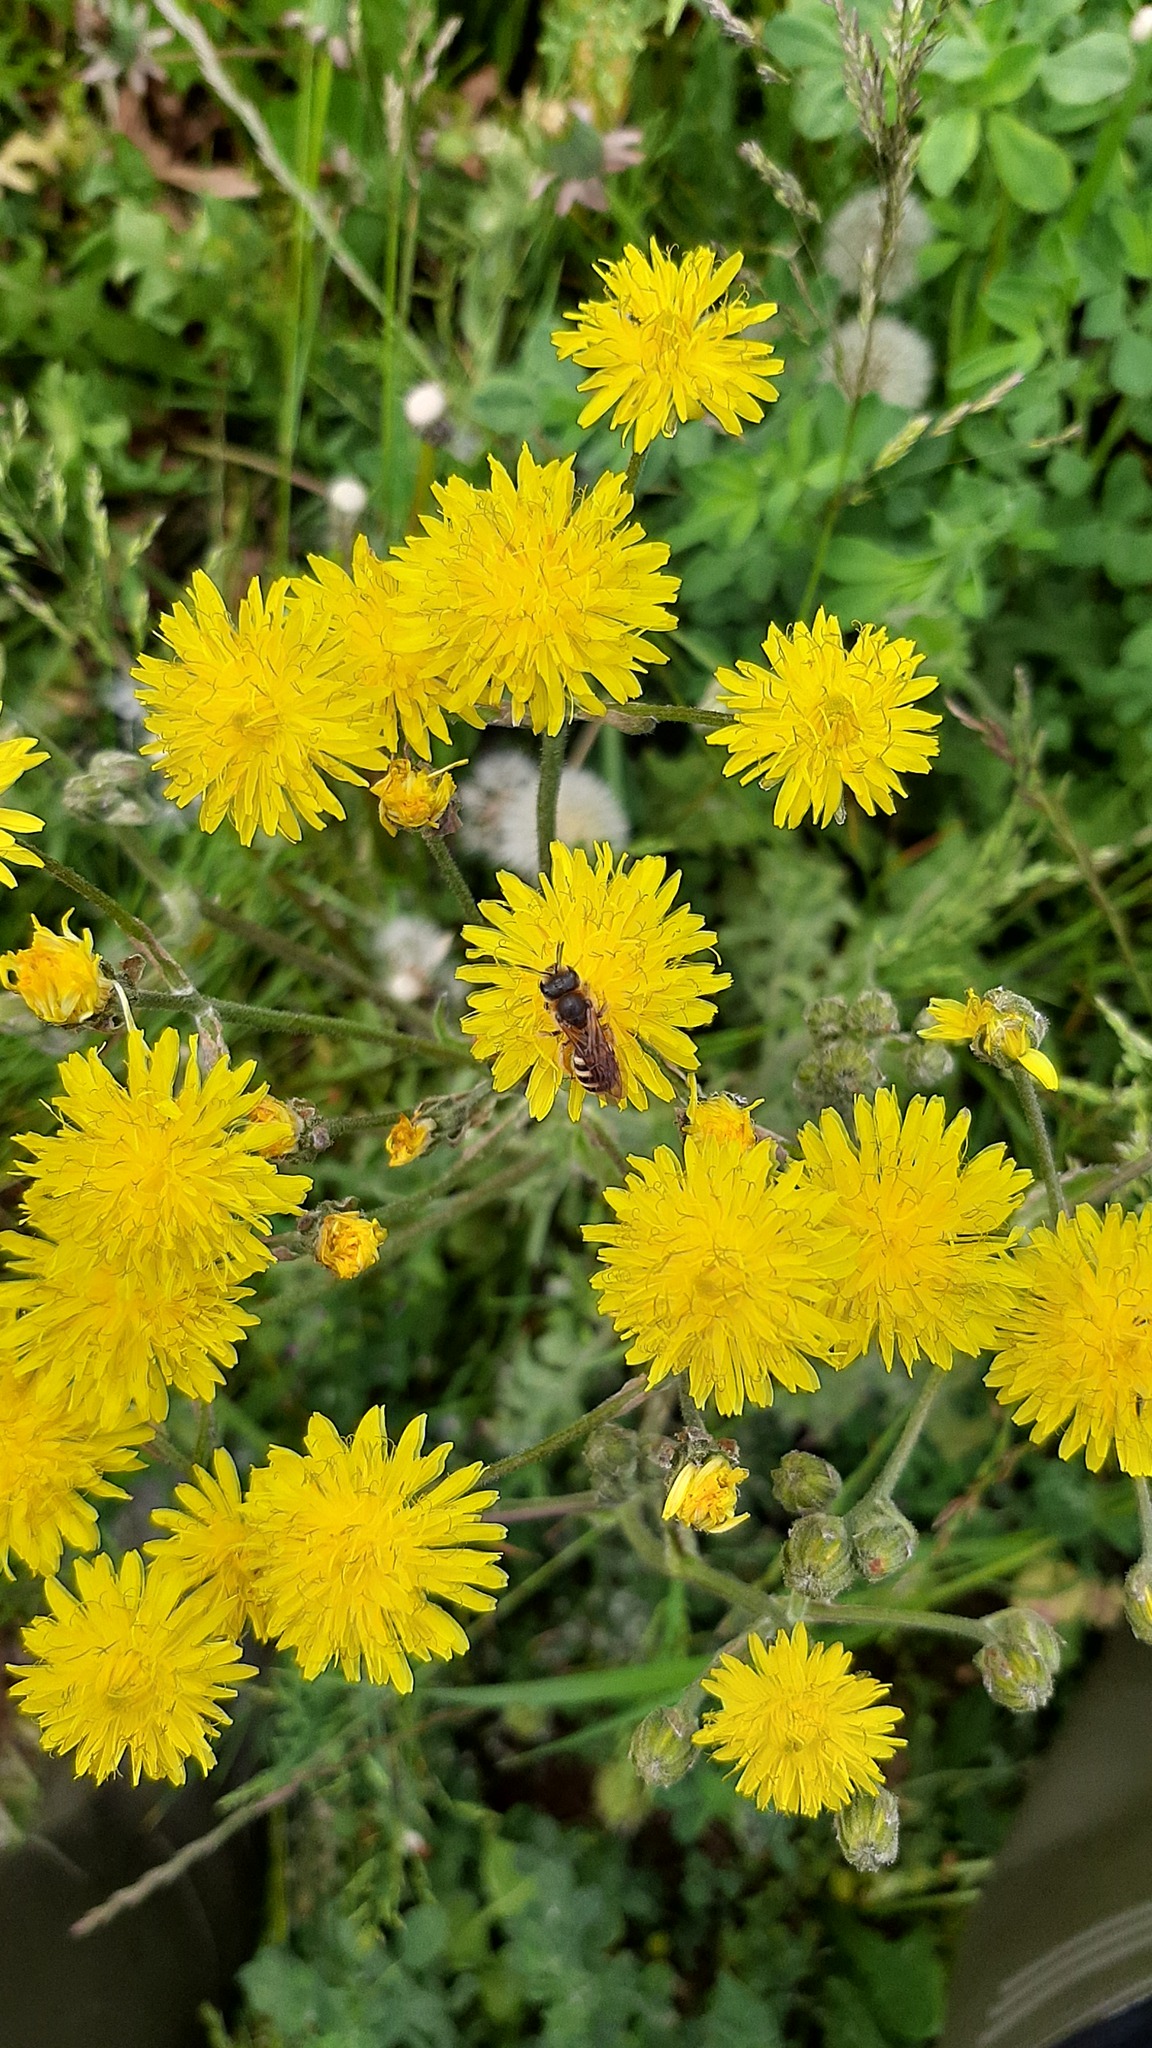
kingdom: Animalia
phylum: Arthropoda
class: Insecta
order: Hymenoptera
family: Halictidae
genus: Halictus
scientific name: Halictus scabiosae
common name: Great banded furrow bee
